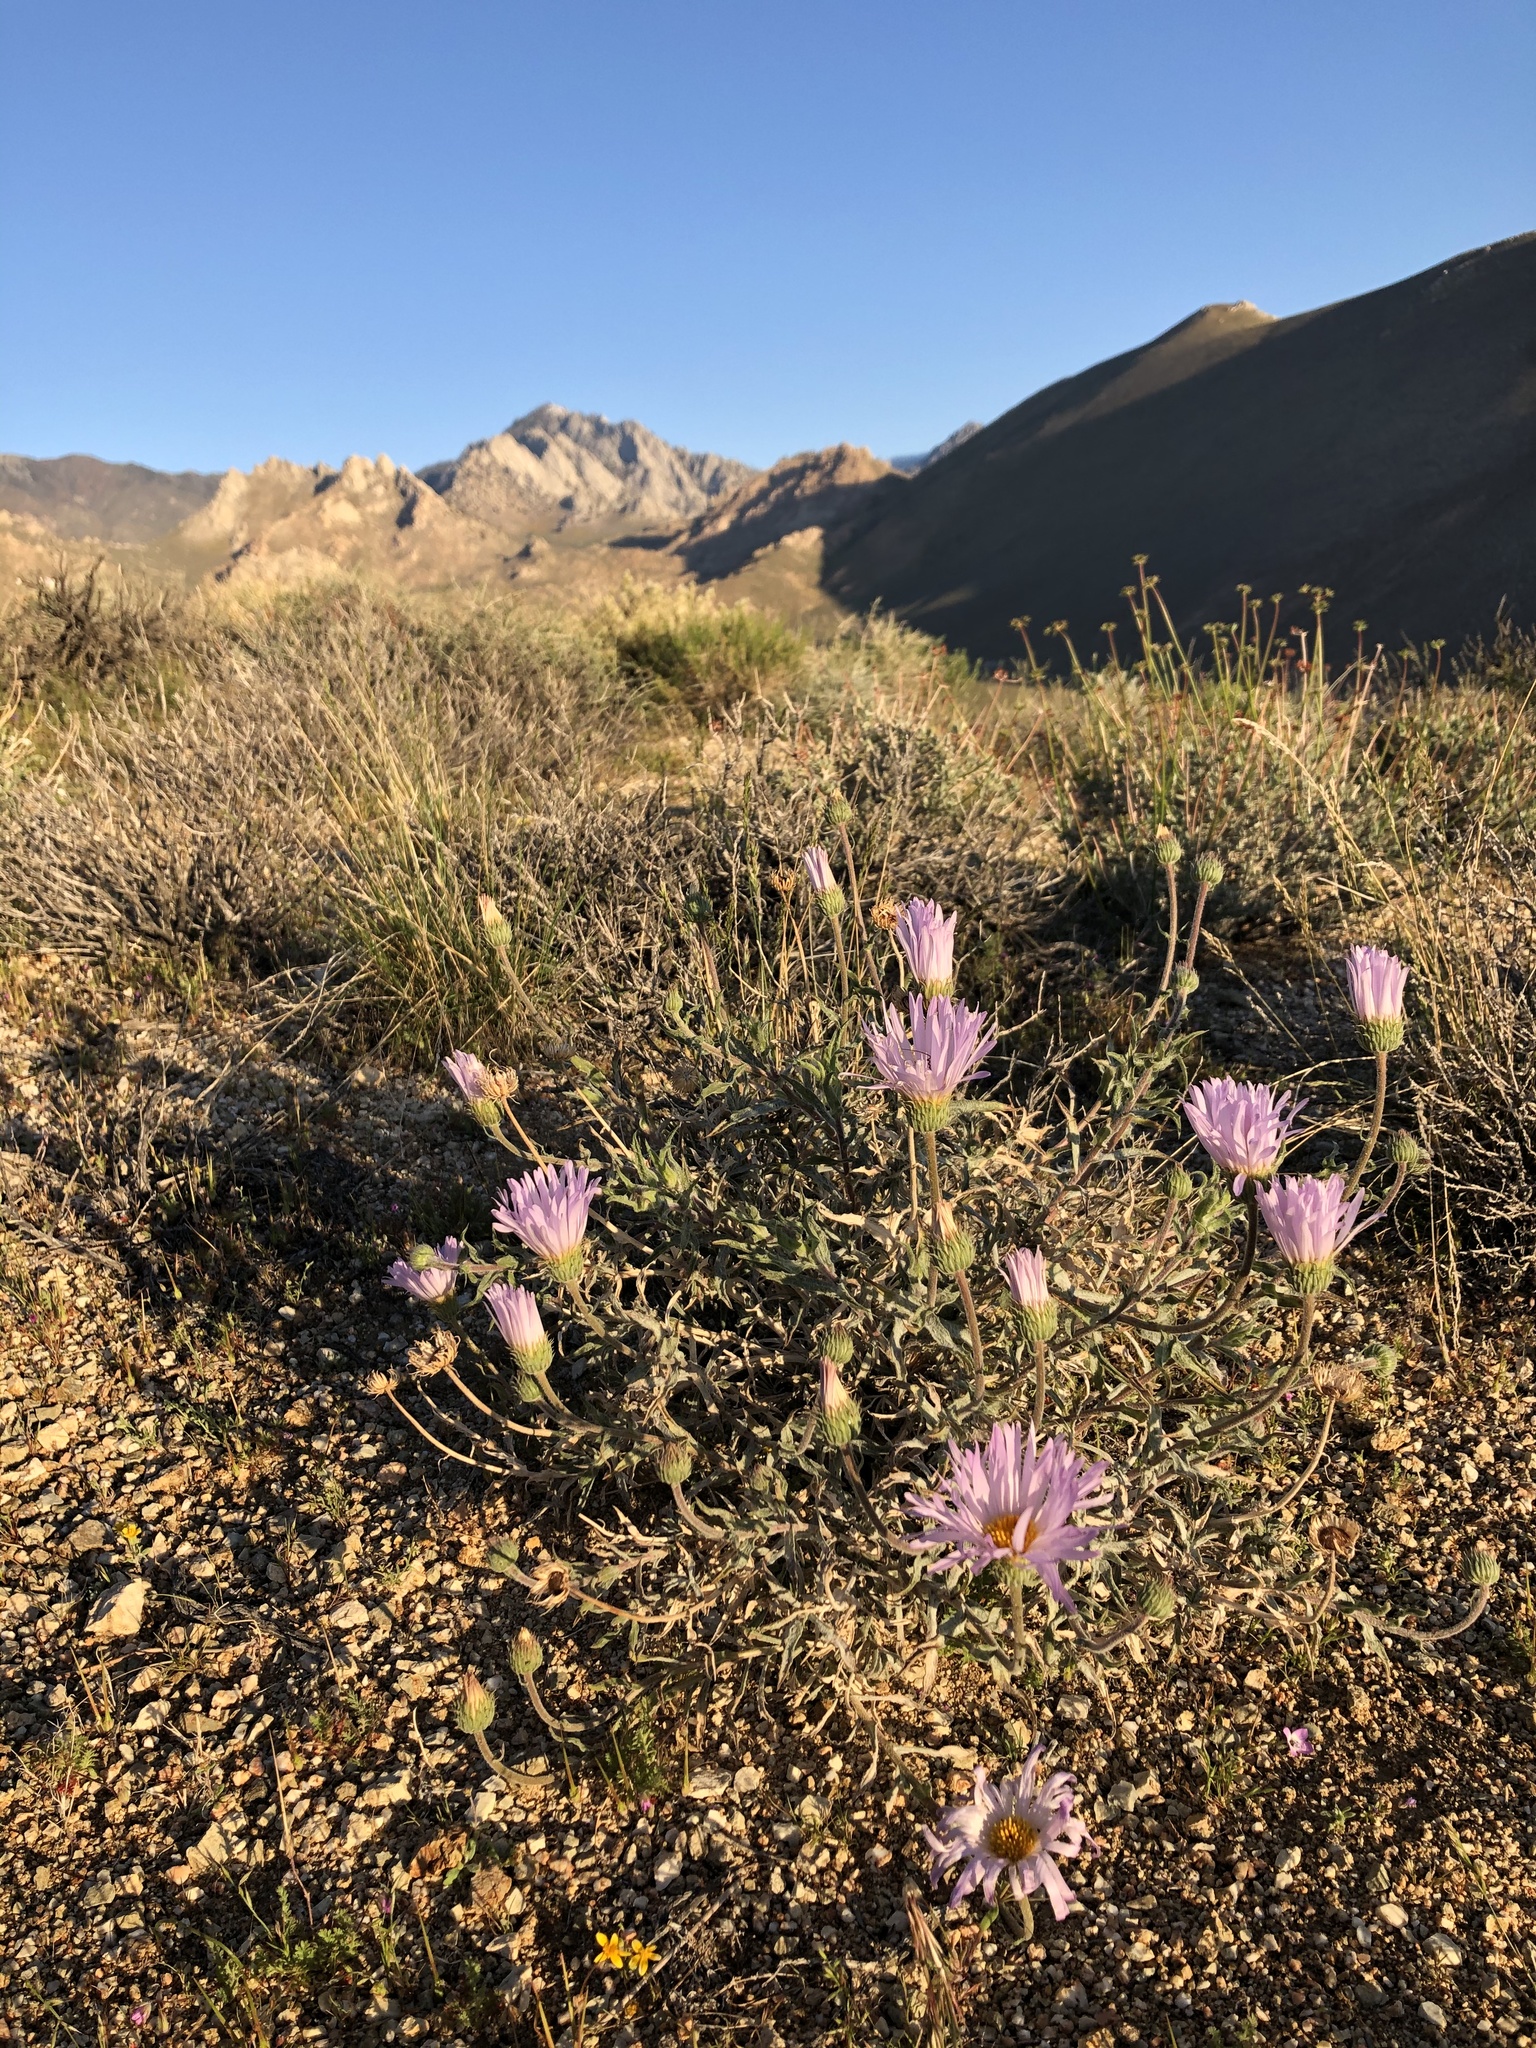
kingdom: Plantae
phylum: Tracheophyta
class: Magnoliopsida
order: Asterales
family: Asteraceae
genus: Xylorhiza
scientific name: Xylorhiza tortifolia
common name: Hurt-leaf woody-aster
